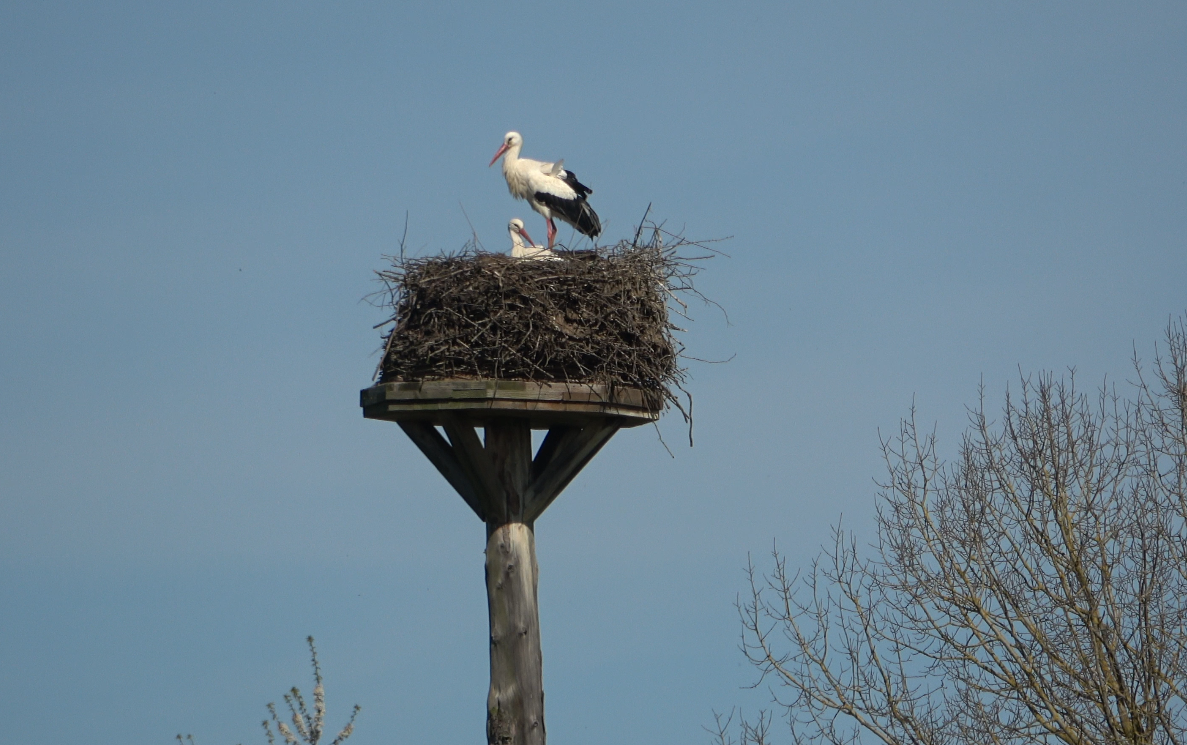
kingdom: Animalia
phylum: Chordata
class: Aves
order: Ciconiiformes
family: Ciconiidae
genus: Ciconia
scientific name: Ciconia ciconia
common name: White stork
